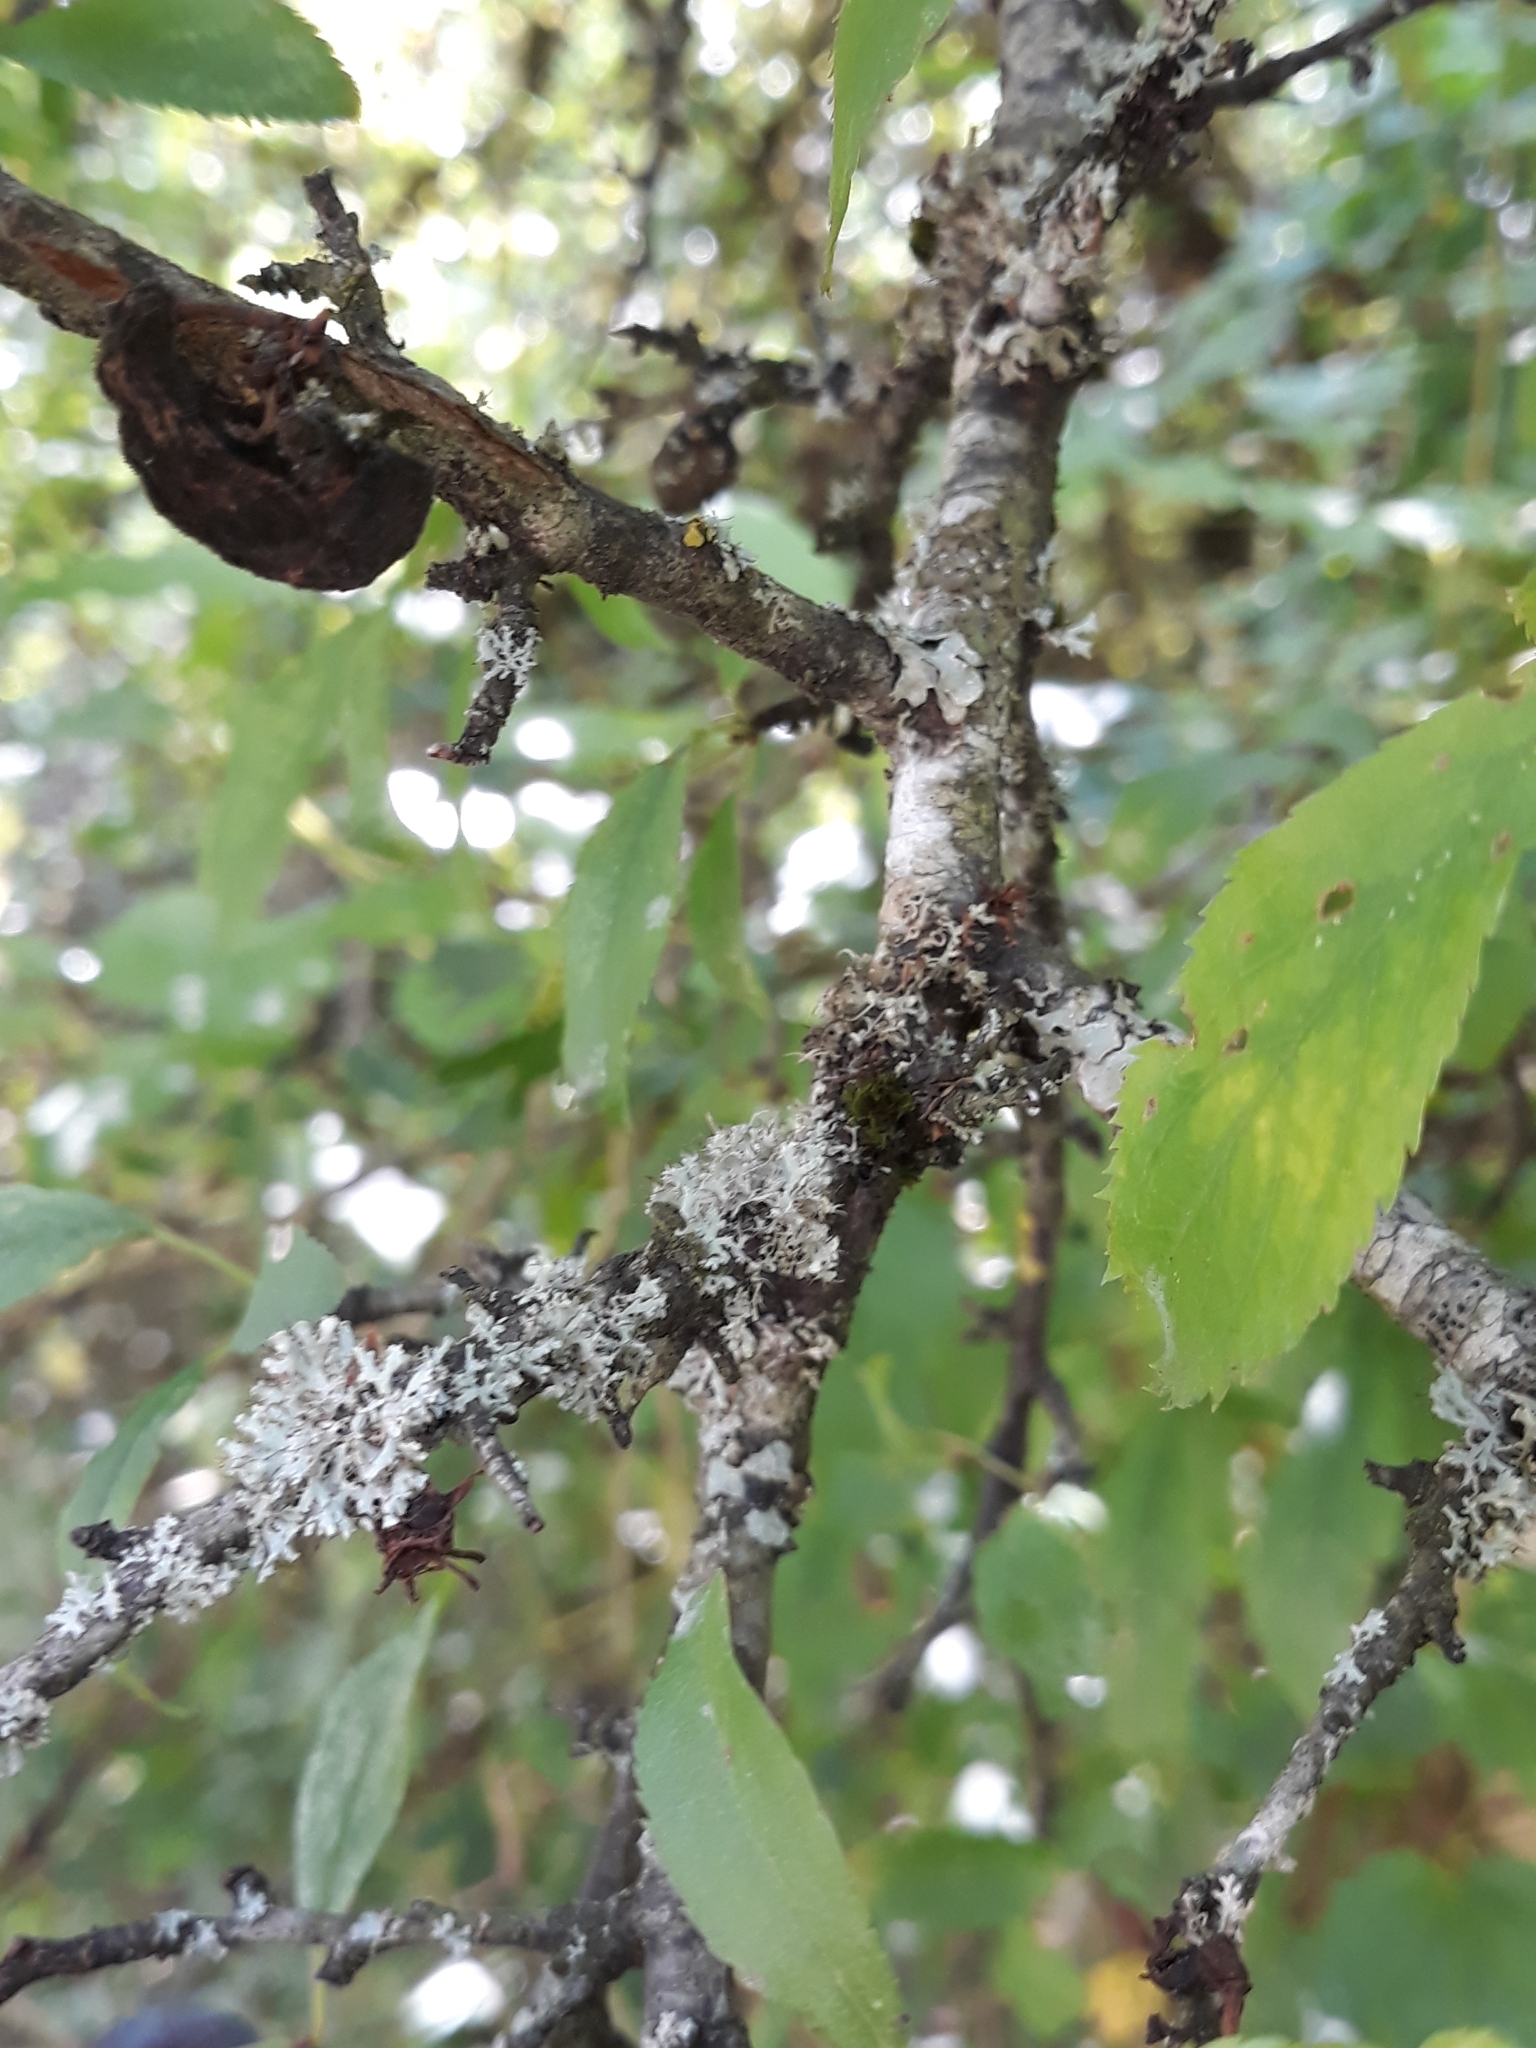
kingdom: Plantae
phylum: Tracheophyta
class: Magnoliopsida
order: Rosales
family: Rosaceae
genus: Prunus
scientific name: Prunus spinosa
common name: Blackthorn
